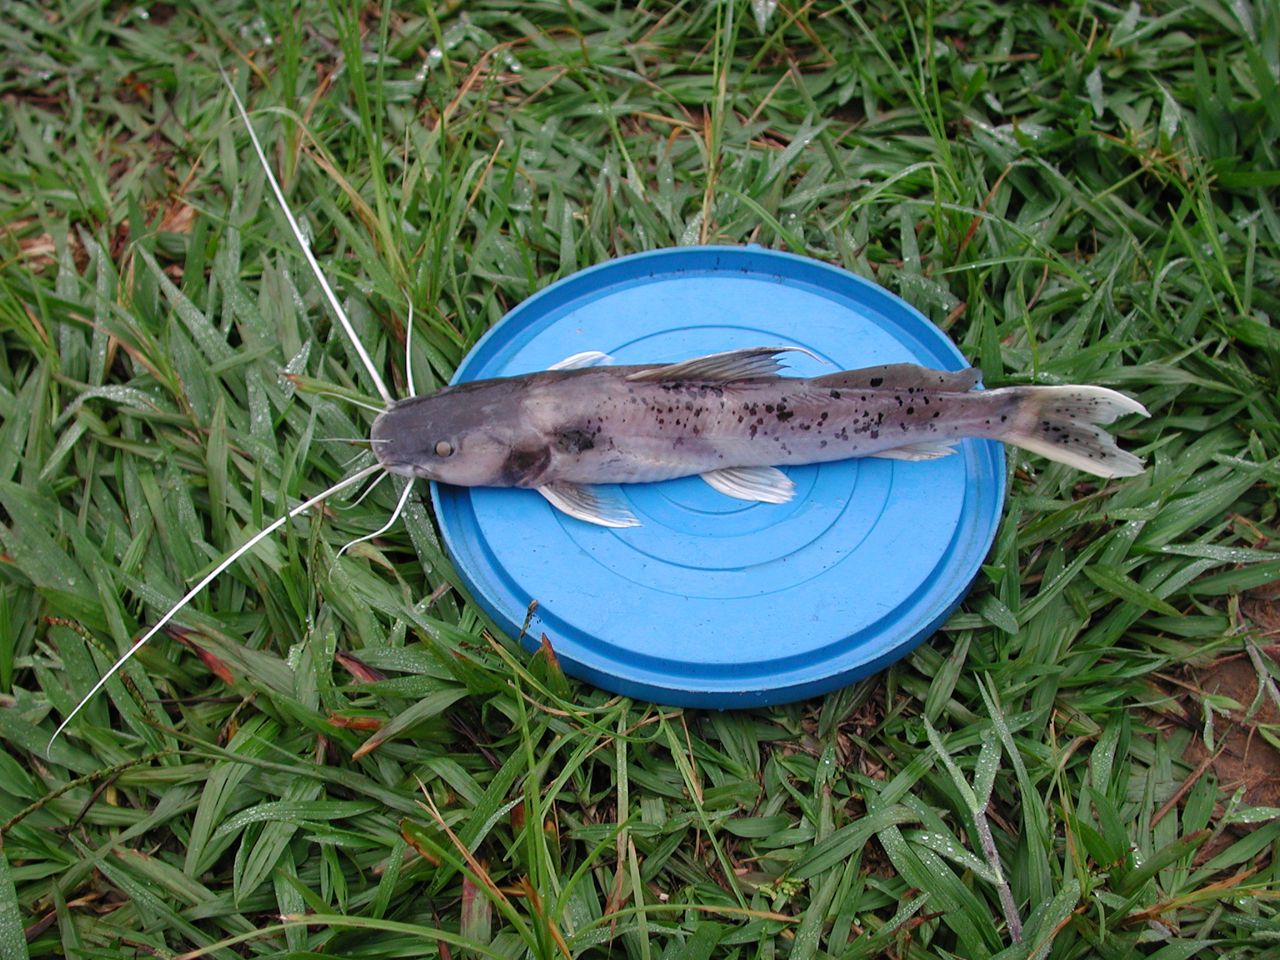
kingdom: Animalia
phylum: Chordata
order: Siluriformes
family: Bagridae
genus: Bagrus
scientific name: Bagrus ubangensis
